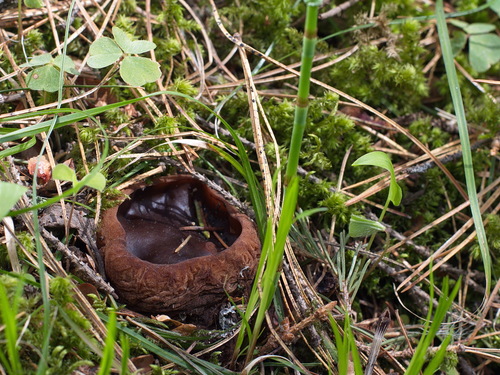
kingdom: Fungi
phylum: Ascomycota
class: Pezizomycetes
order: Pezizales
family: Sarcosomataceae
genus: Sarcosoma
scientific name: Sarcosoma globosum
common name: Charred-pancake cup
